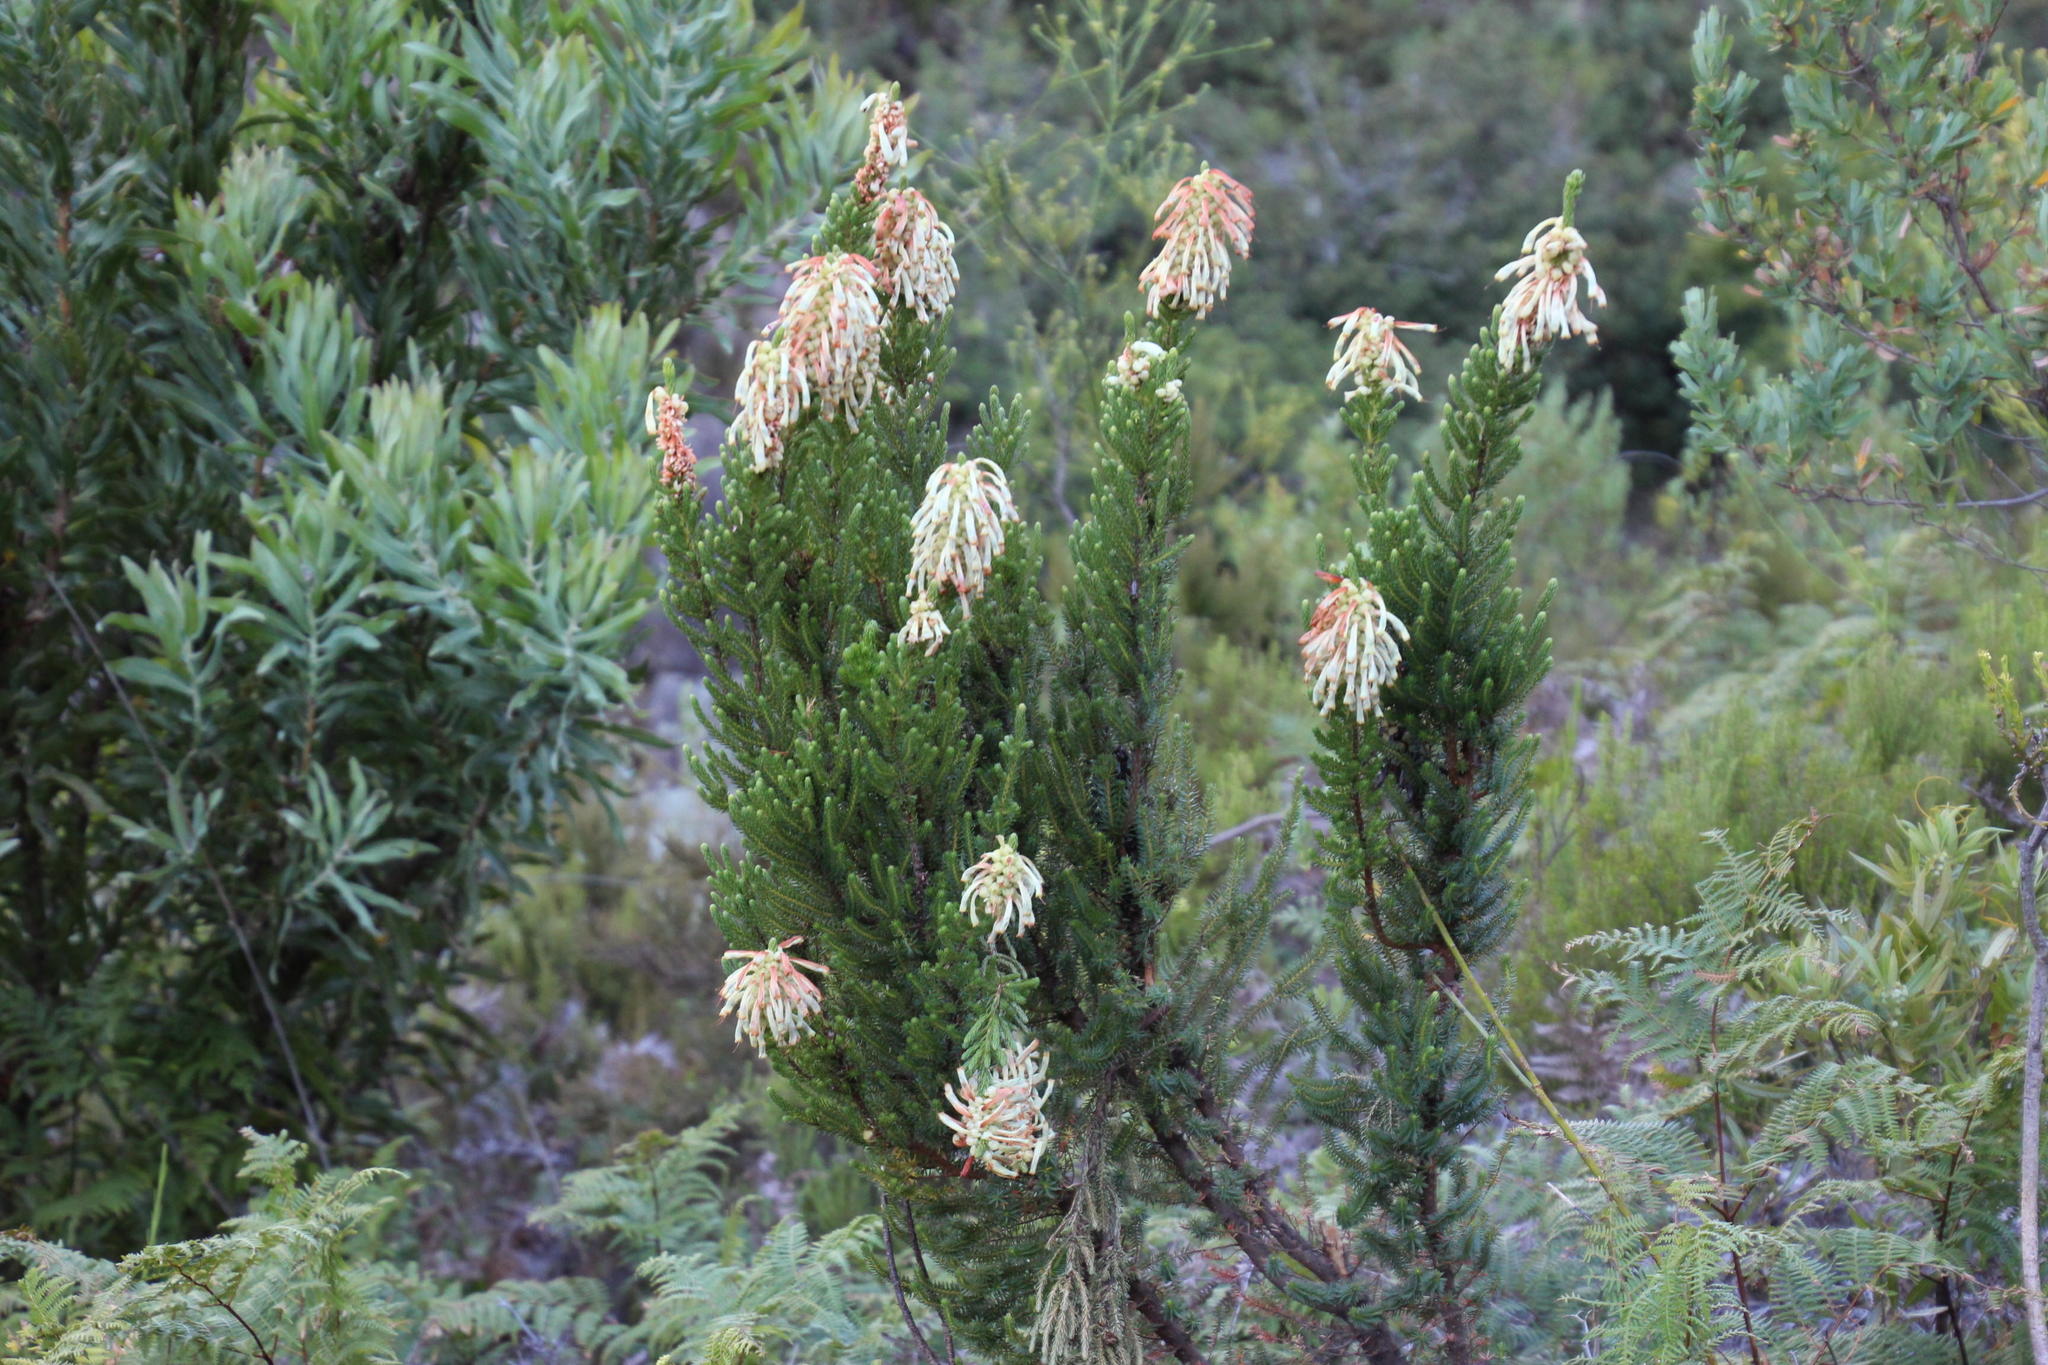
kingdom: Plantae
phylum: Tracheophyta
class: Magnoliopsida
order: Ericales
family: Ericaceae
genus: Erica
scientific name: Erica sessiliflora
